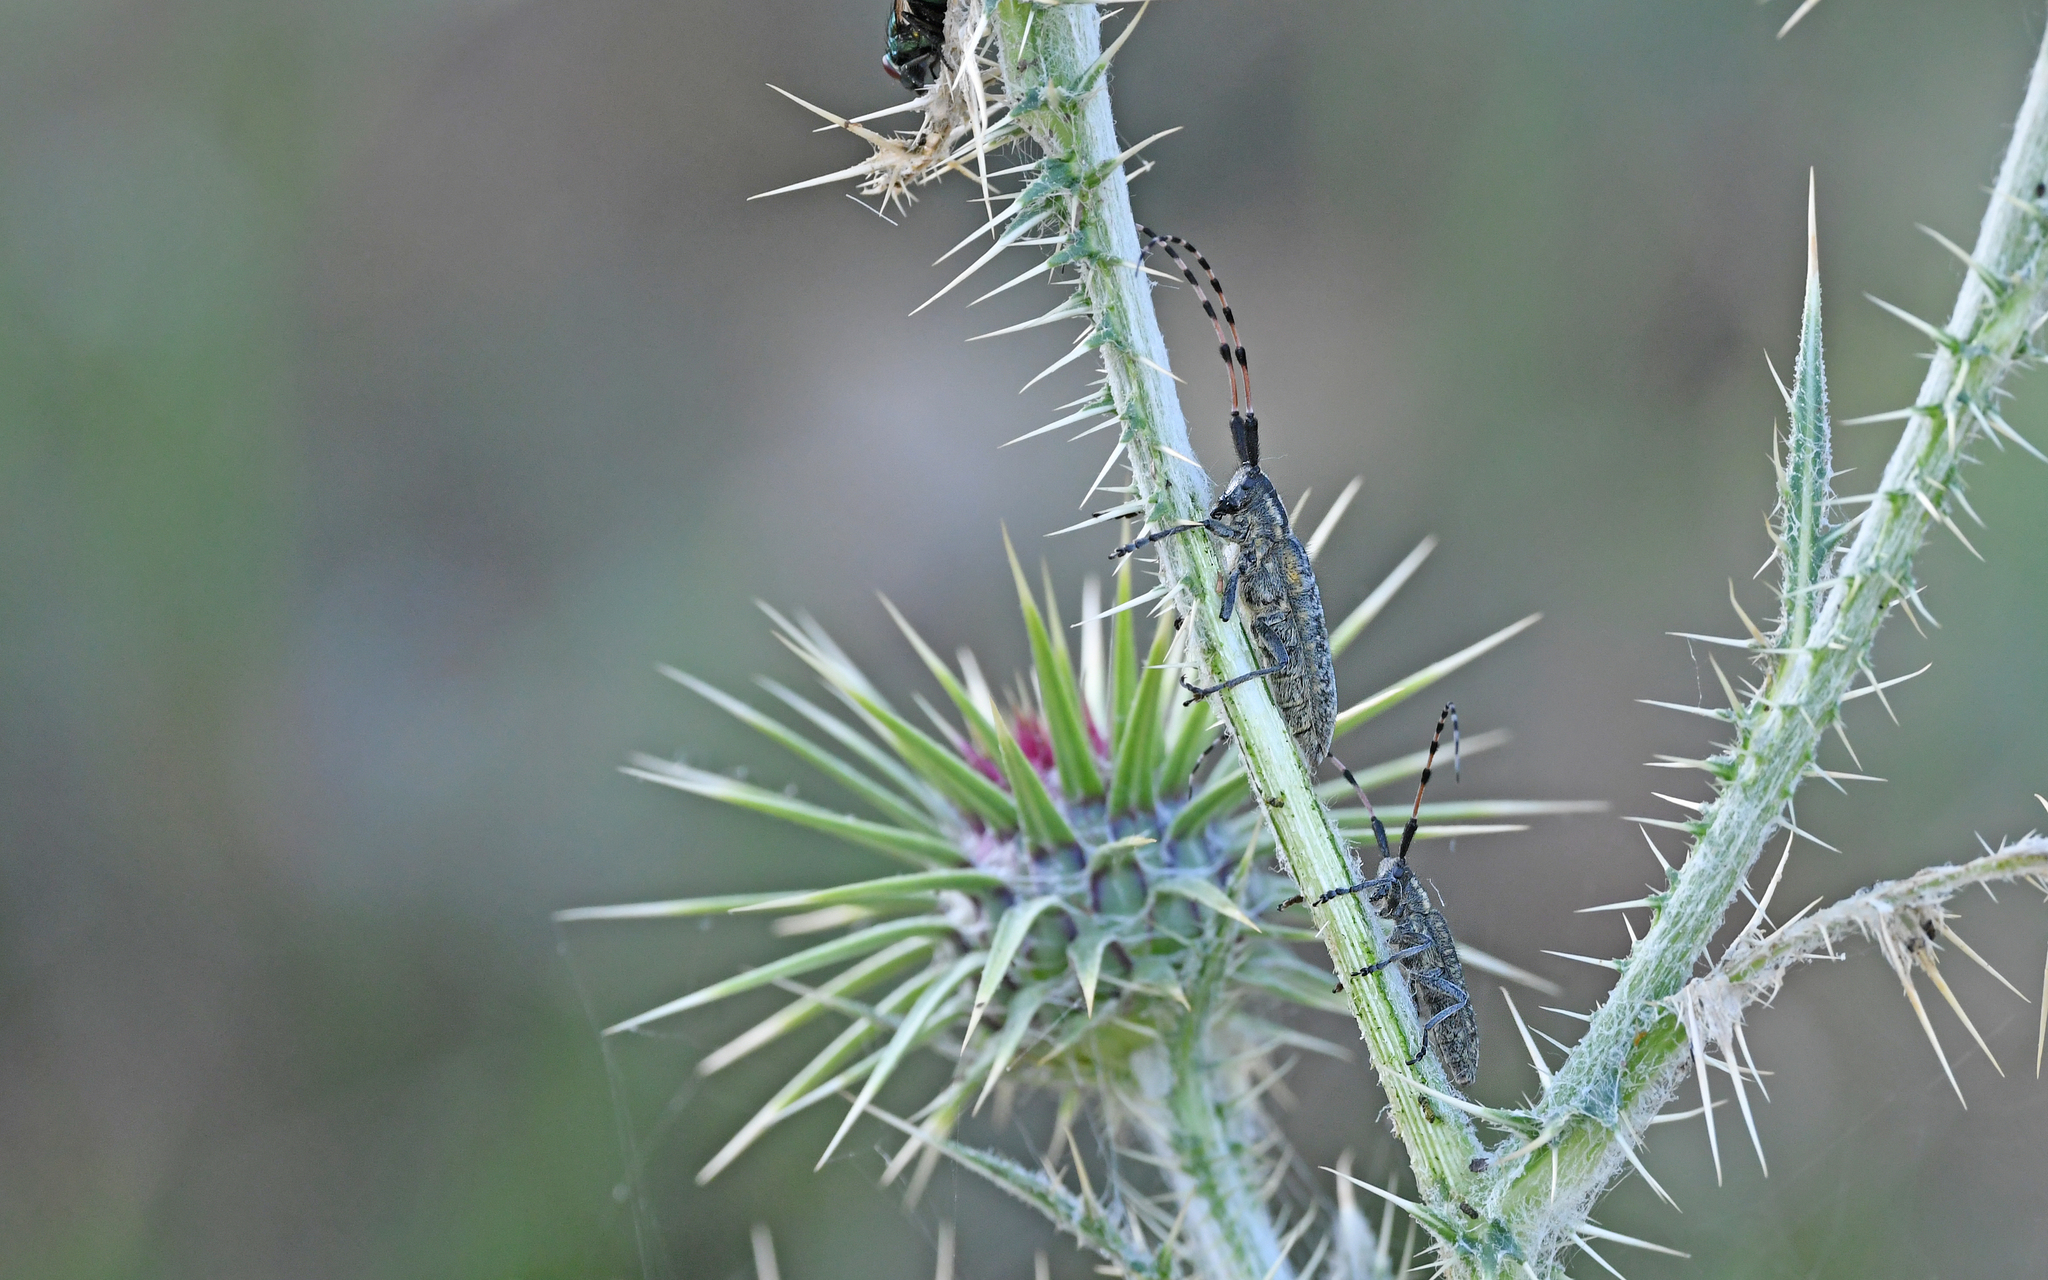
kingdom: Animalia
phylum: Arthropoda
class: Insecta
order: Coleoptera
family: Cerambycidae
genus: Agapanthia
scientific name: Agapanthia dahlii
